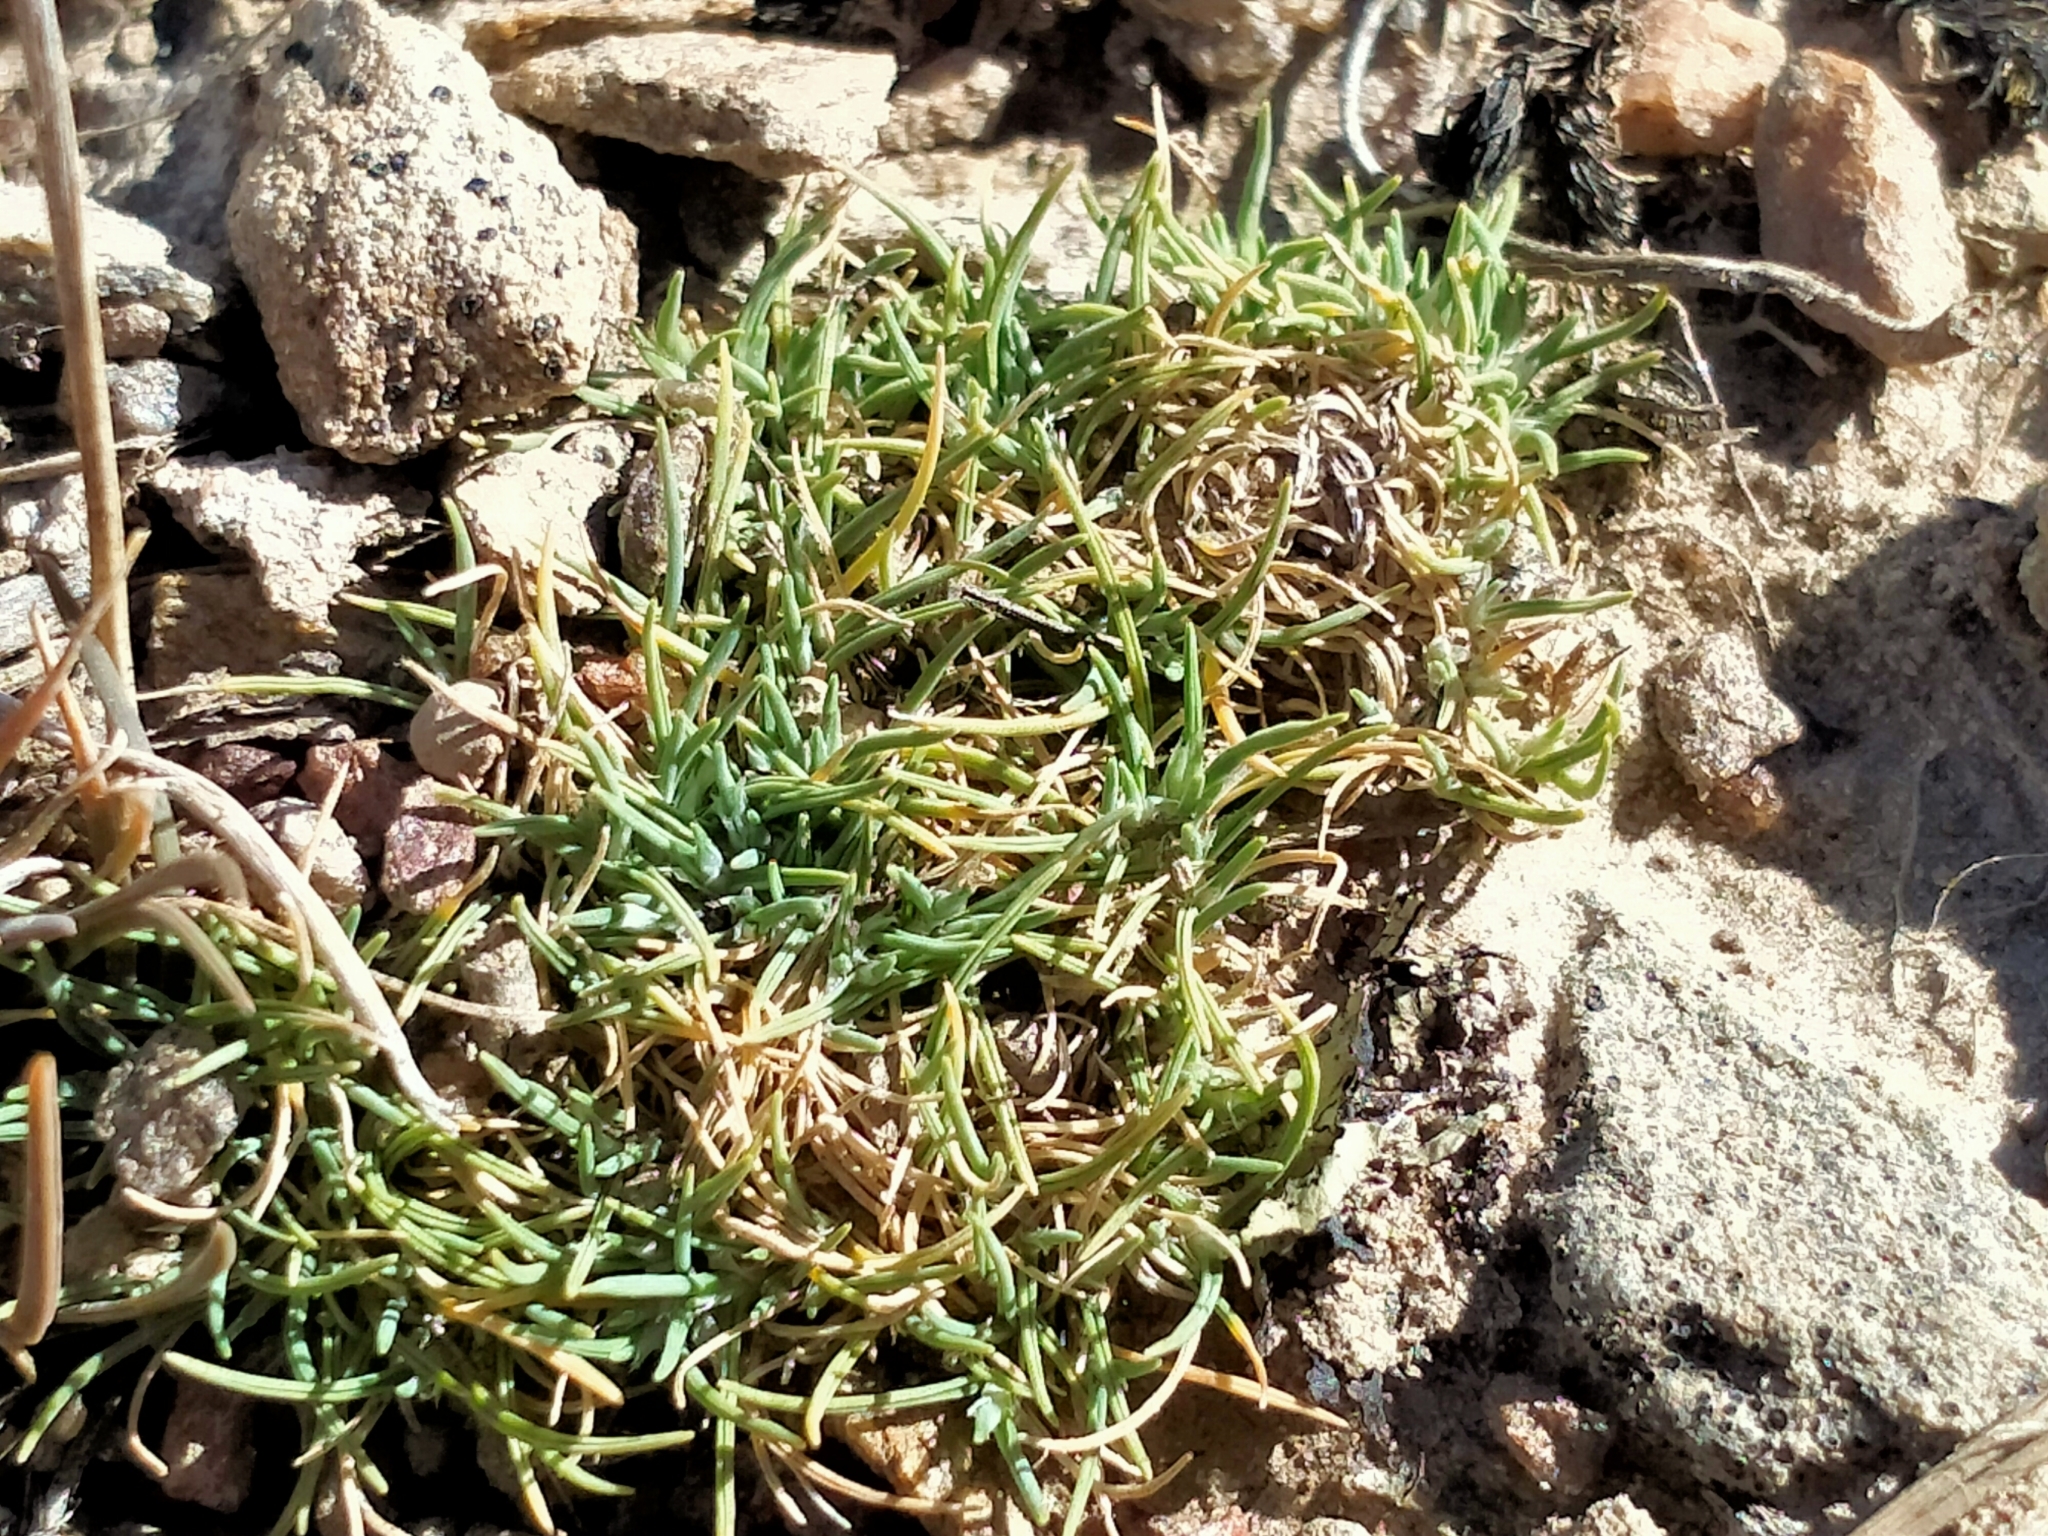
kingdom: Plantae
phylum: Tracheophyta
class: Liliopsida
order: Poales
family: Poaceae
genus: Agrostis
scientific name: Agrostis muscosa
